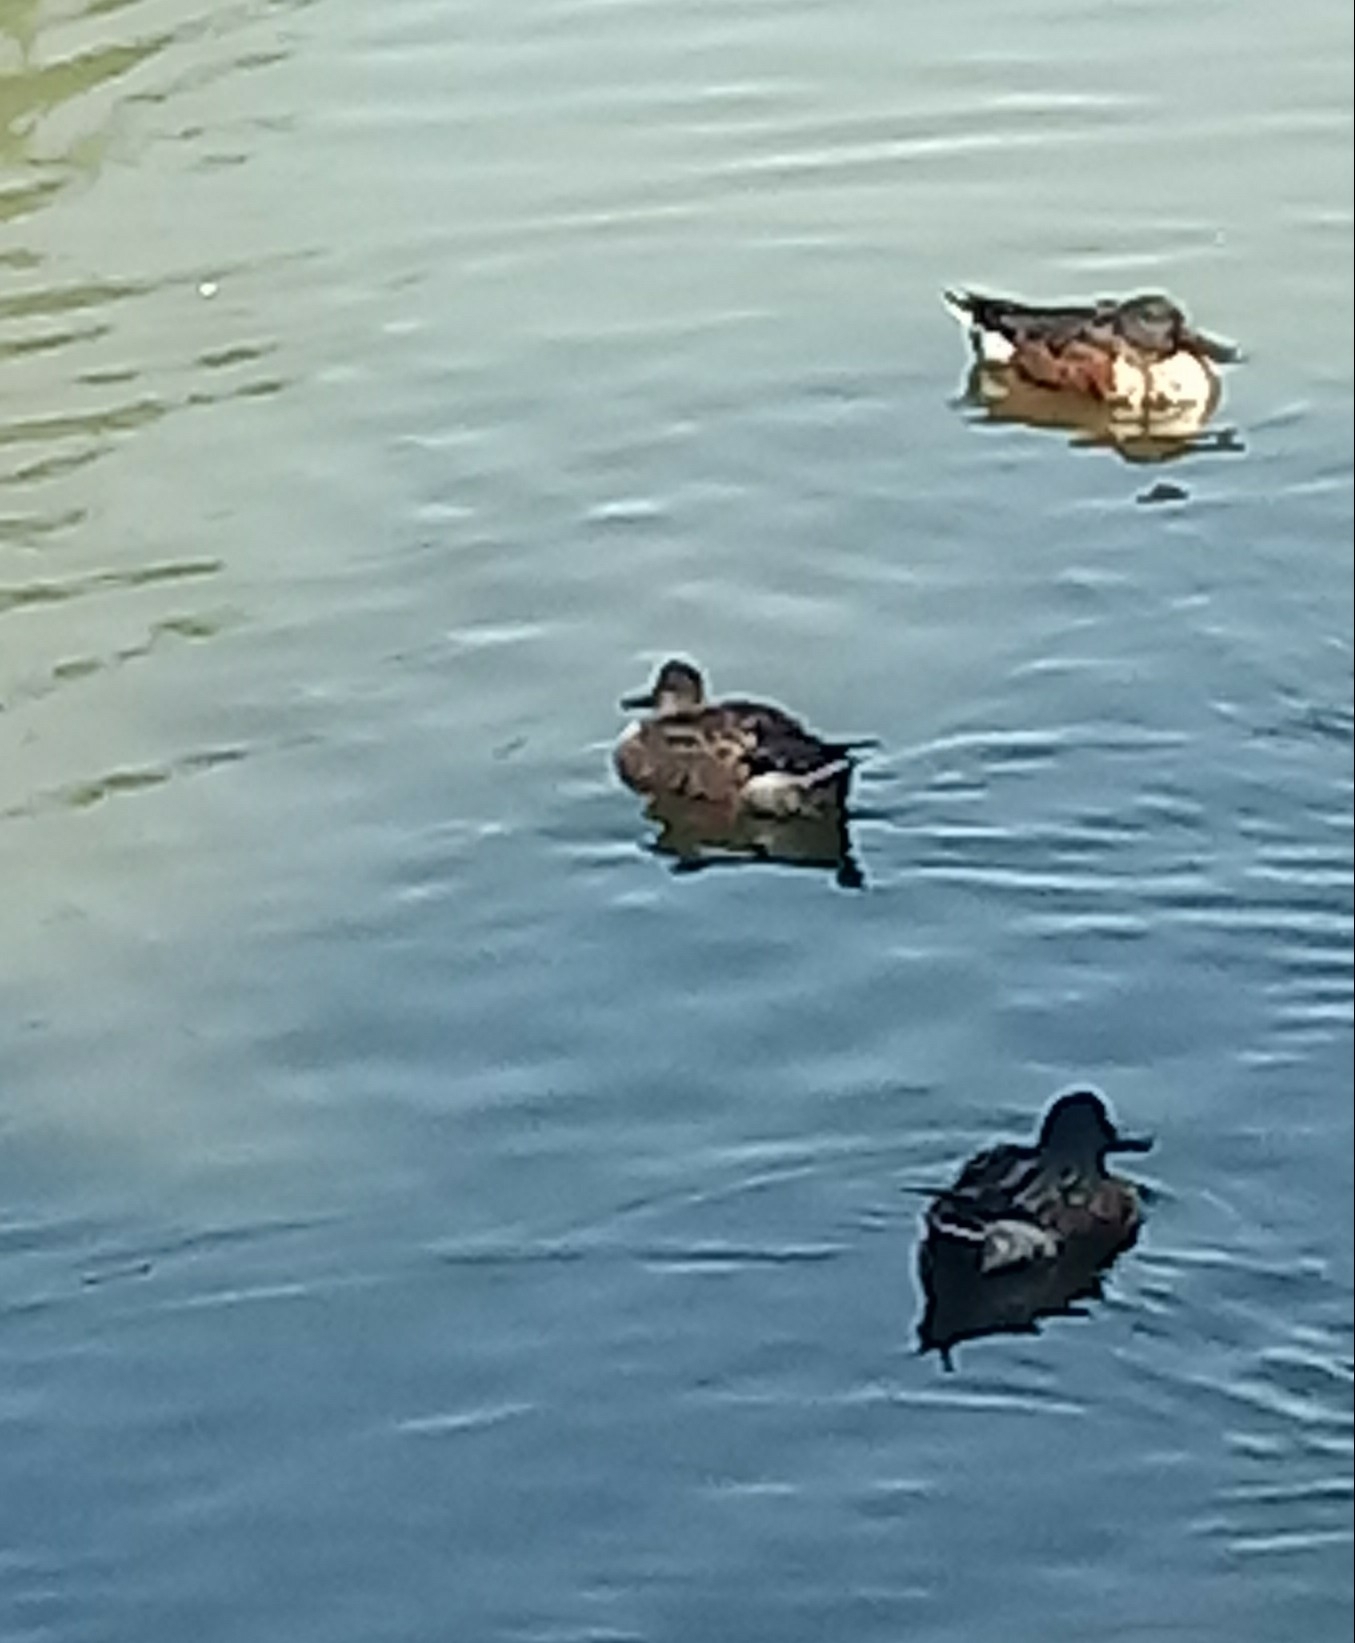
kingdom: Animalia
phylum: Chordata
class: Aves
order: Anseriformes
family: Anatidae
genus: Spatula
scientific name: Spatula clypeata
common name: Northern shoveler
